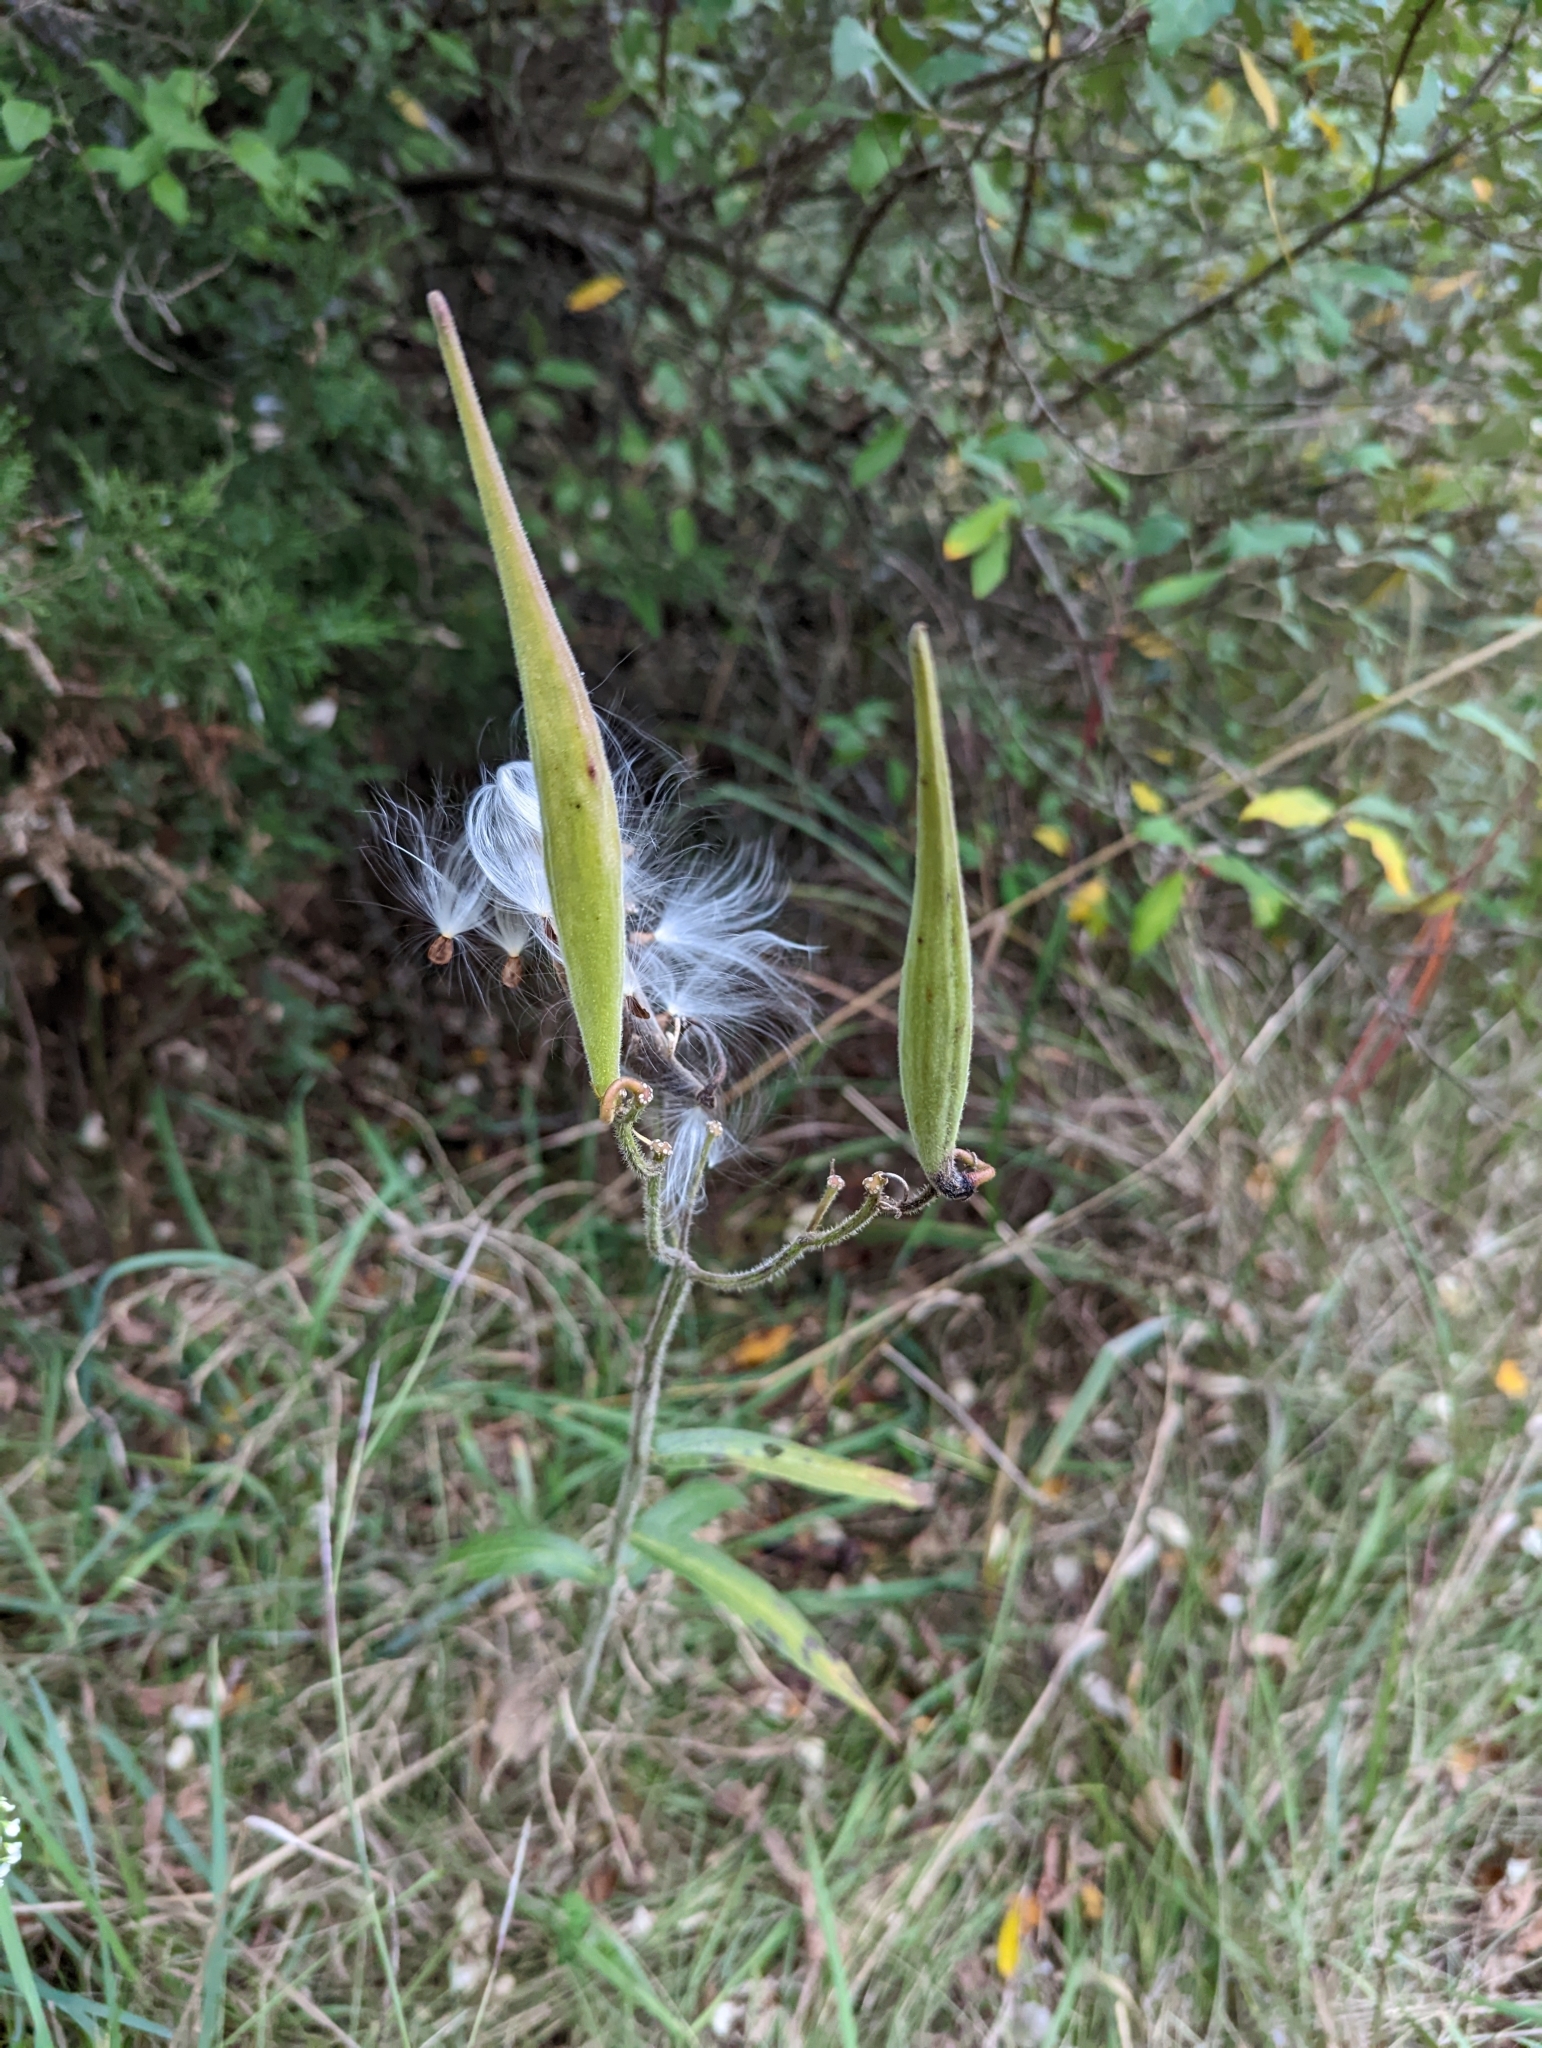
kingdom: Plantae
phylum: Tracheophyta
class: Magnoliopsida
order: Gentianales
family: Apocynaceae
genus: Asclepias
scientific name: Asclepias tuberosa
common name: Butterfly milkweed
